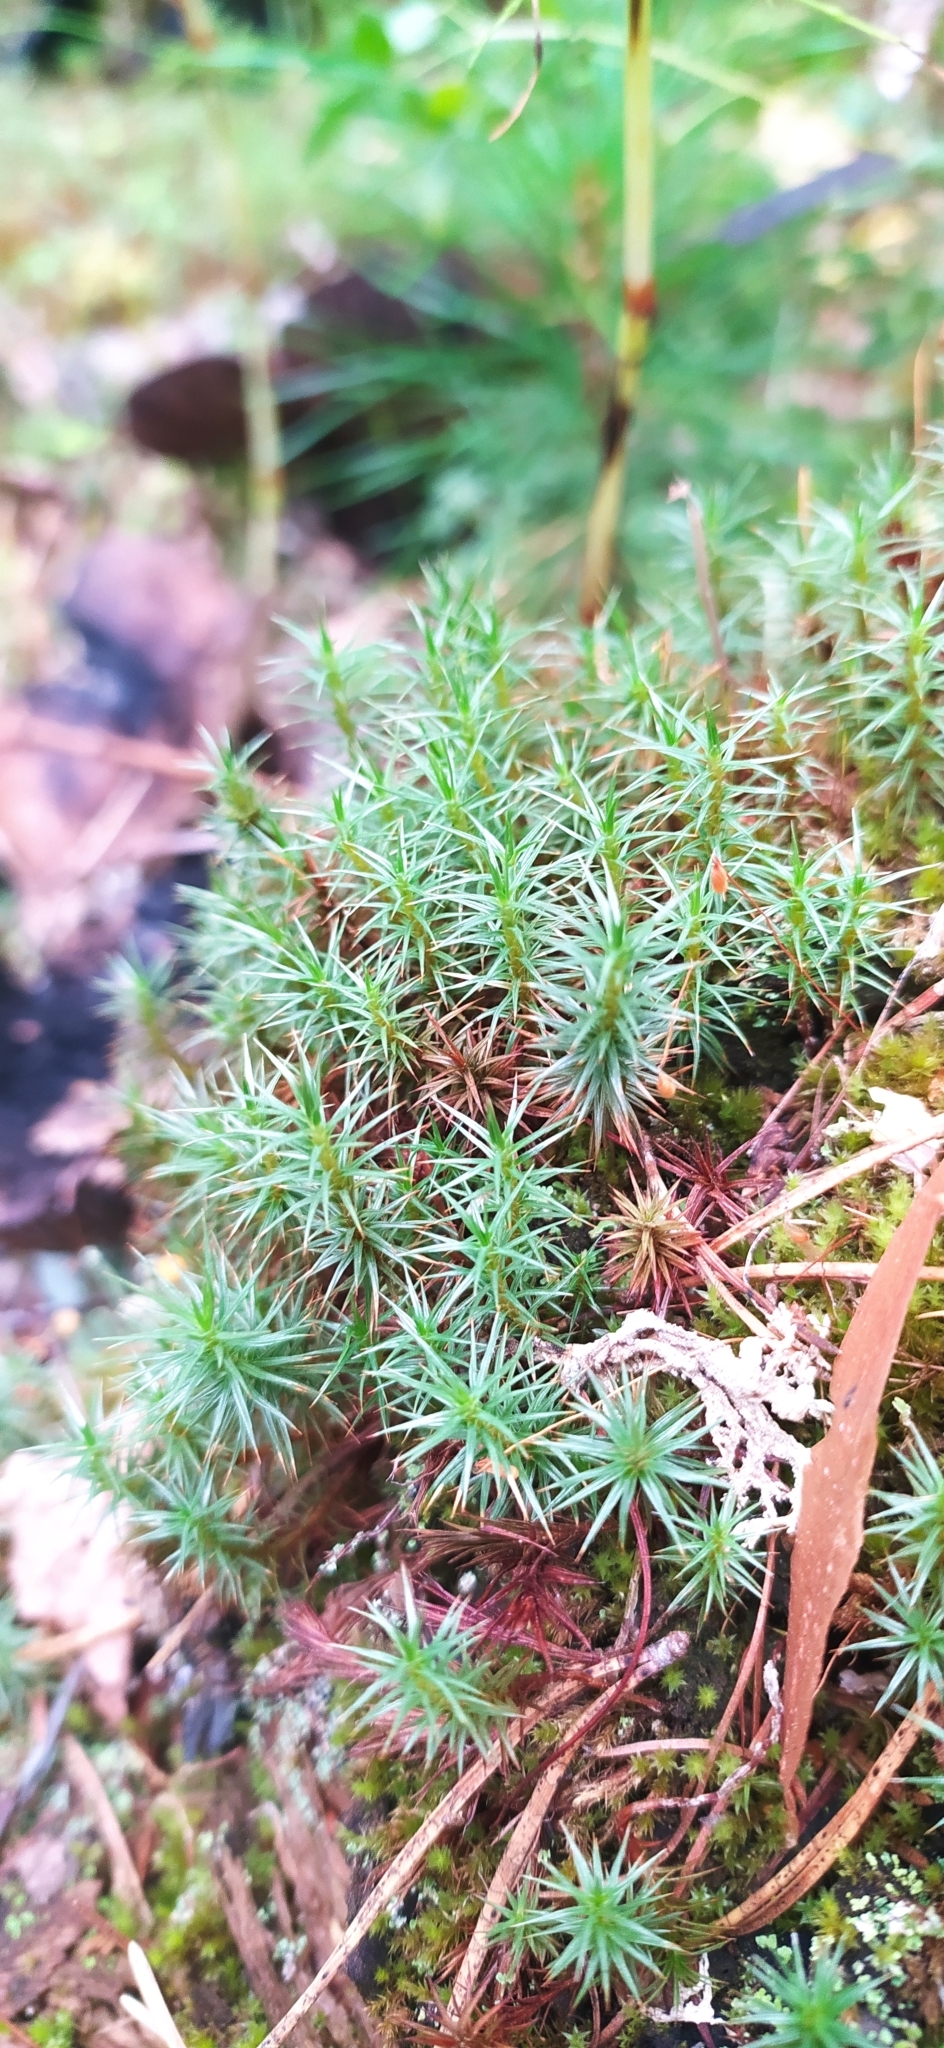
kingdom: Plantae
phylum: Bryophyta
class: Polytrichopsida
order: Polytrichales
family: Polytrichaceae
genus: Polytrichum
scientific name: Polytrichum juniperinum
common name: Juniper haircap moss
